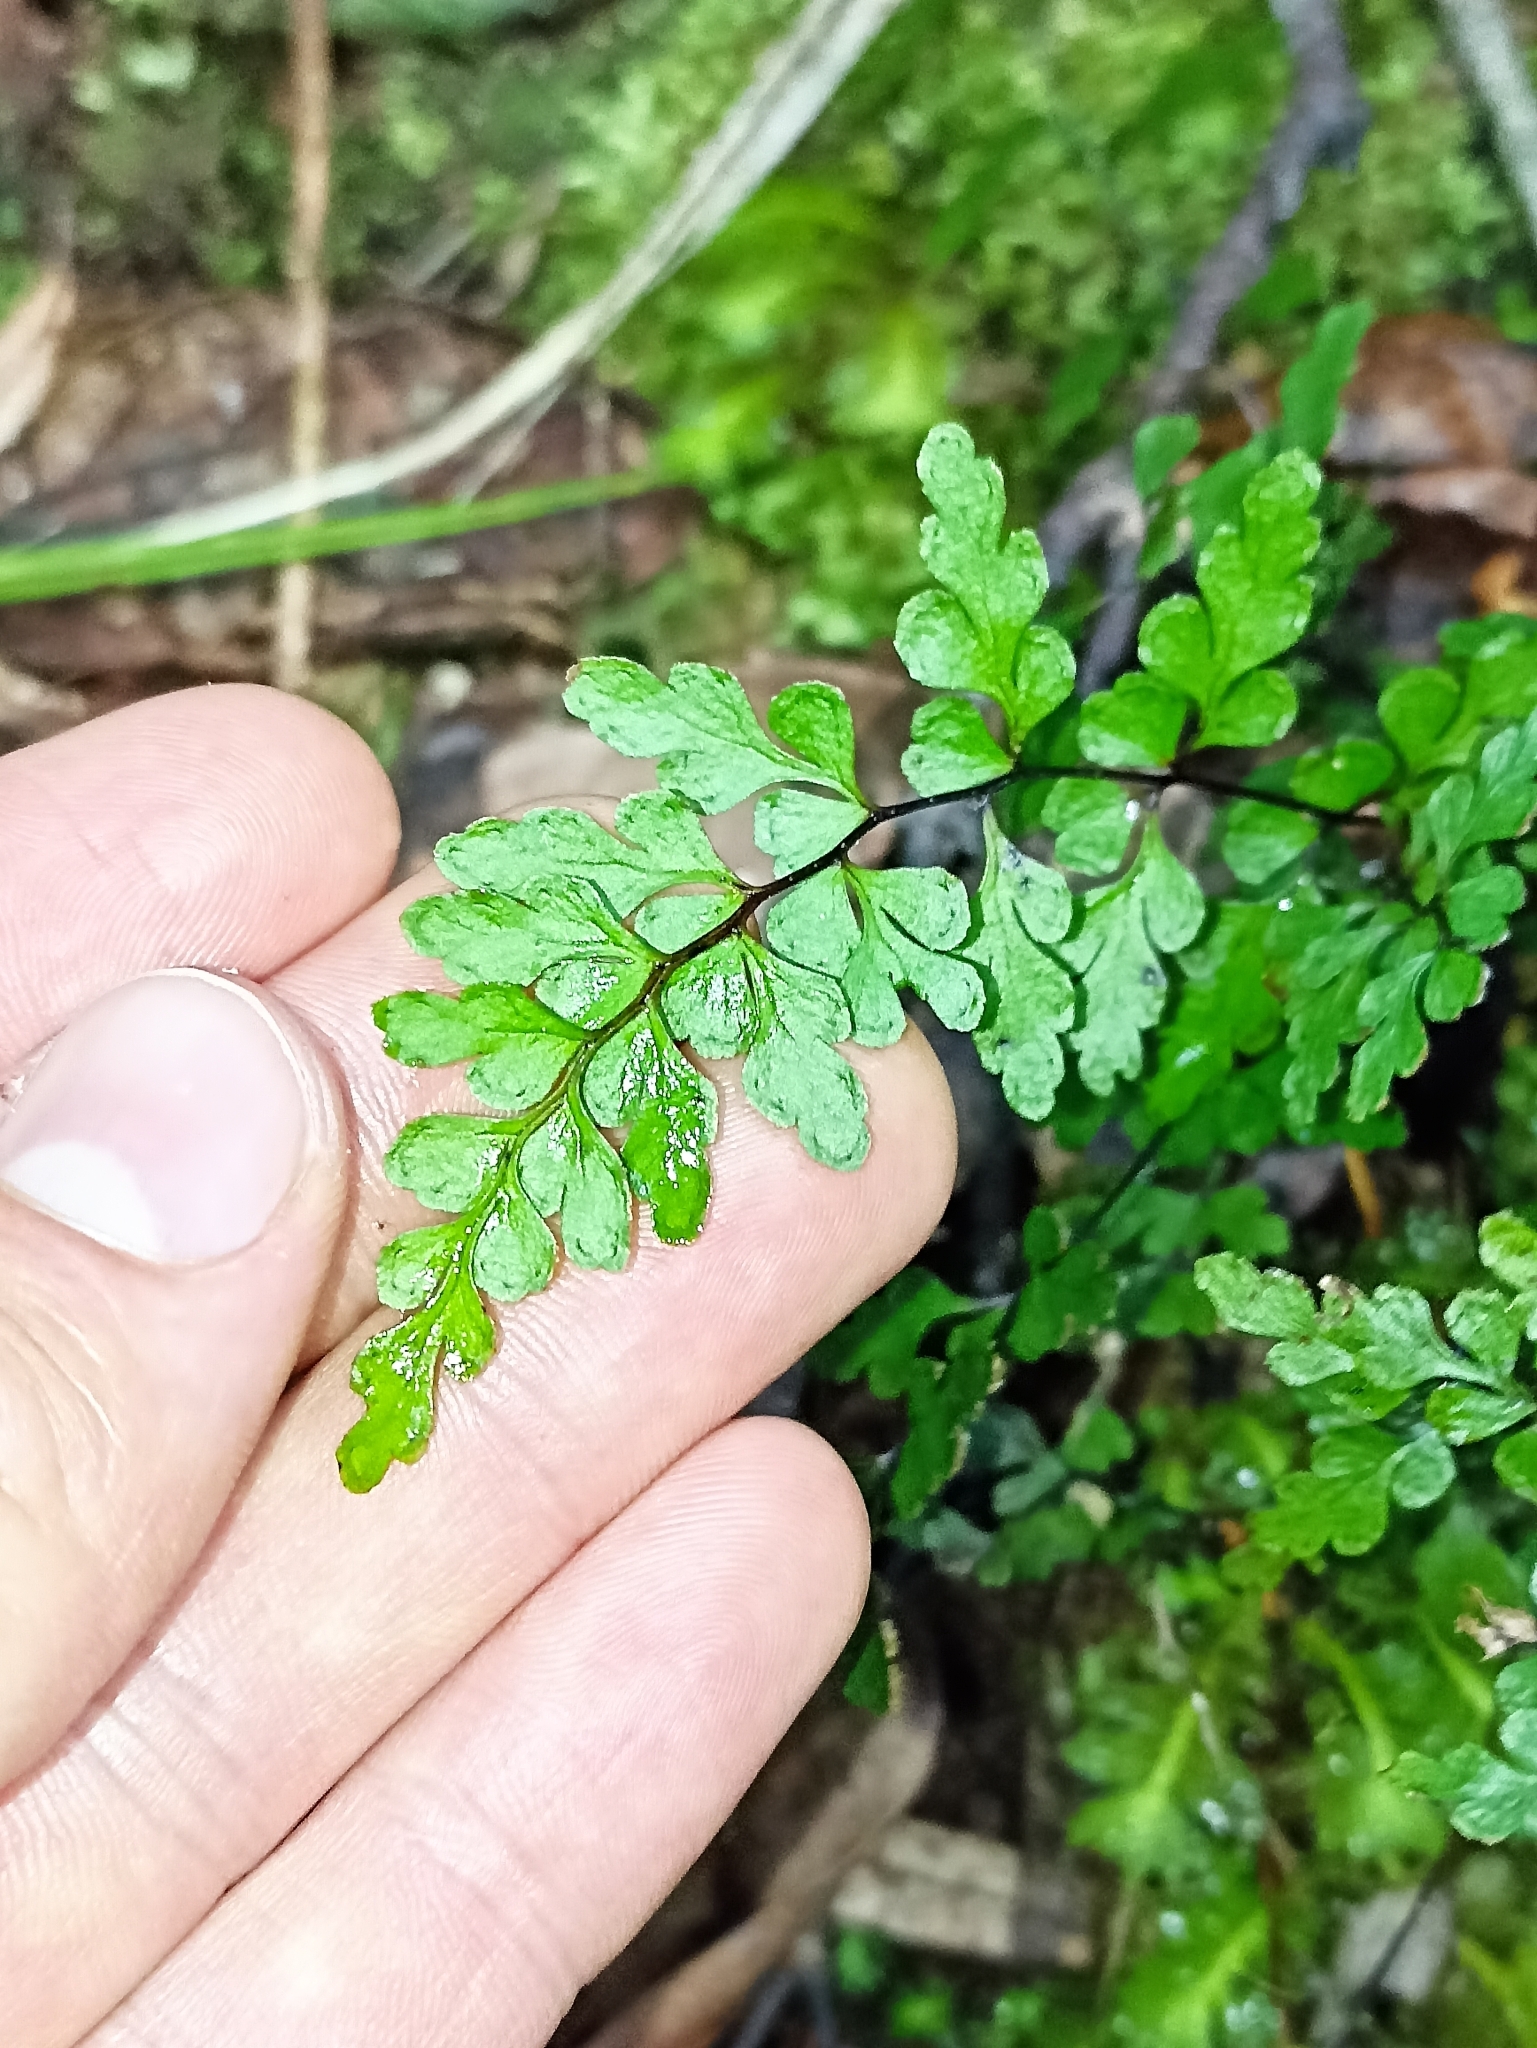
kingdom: Plantae
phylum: Tracheophyta
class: Polypodiopsida
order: Polypodiales
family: Lindsaeaceae
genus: Lindsaea
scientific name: Lindsaea trichomanoides
